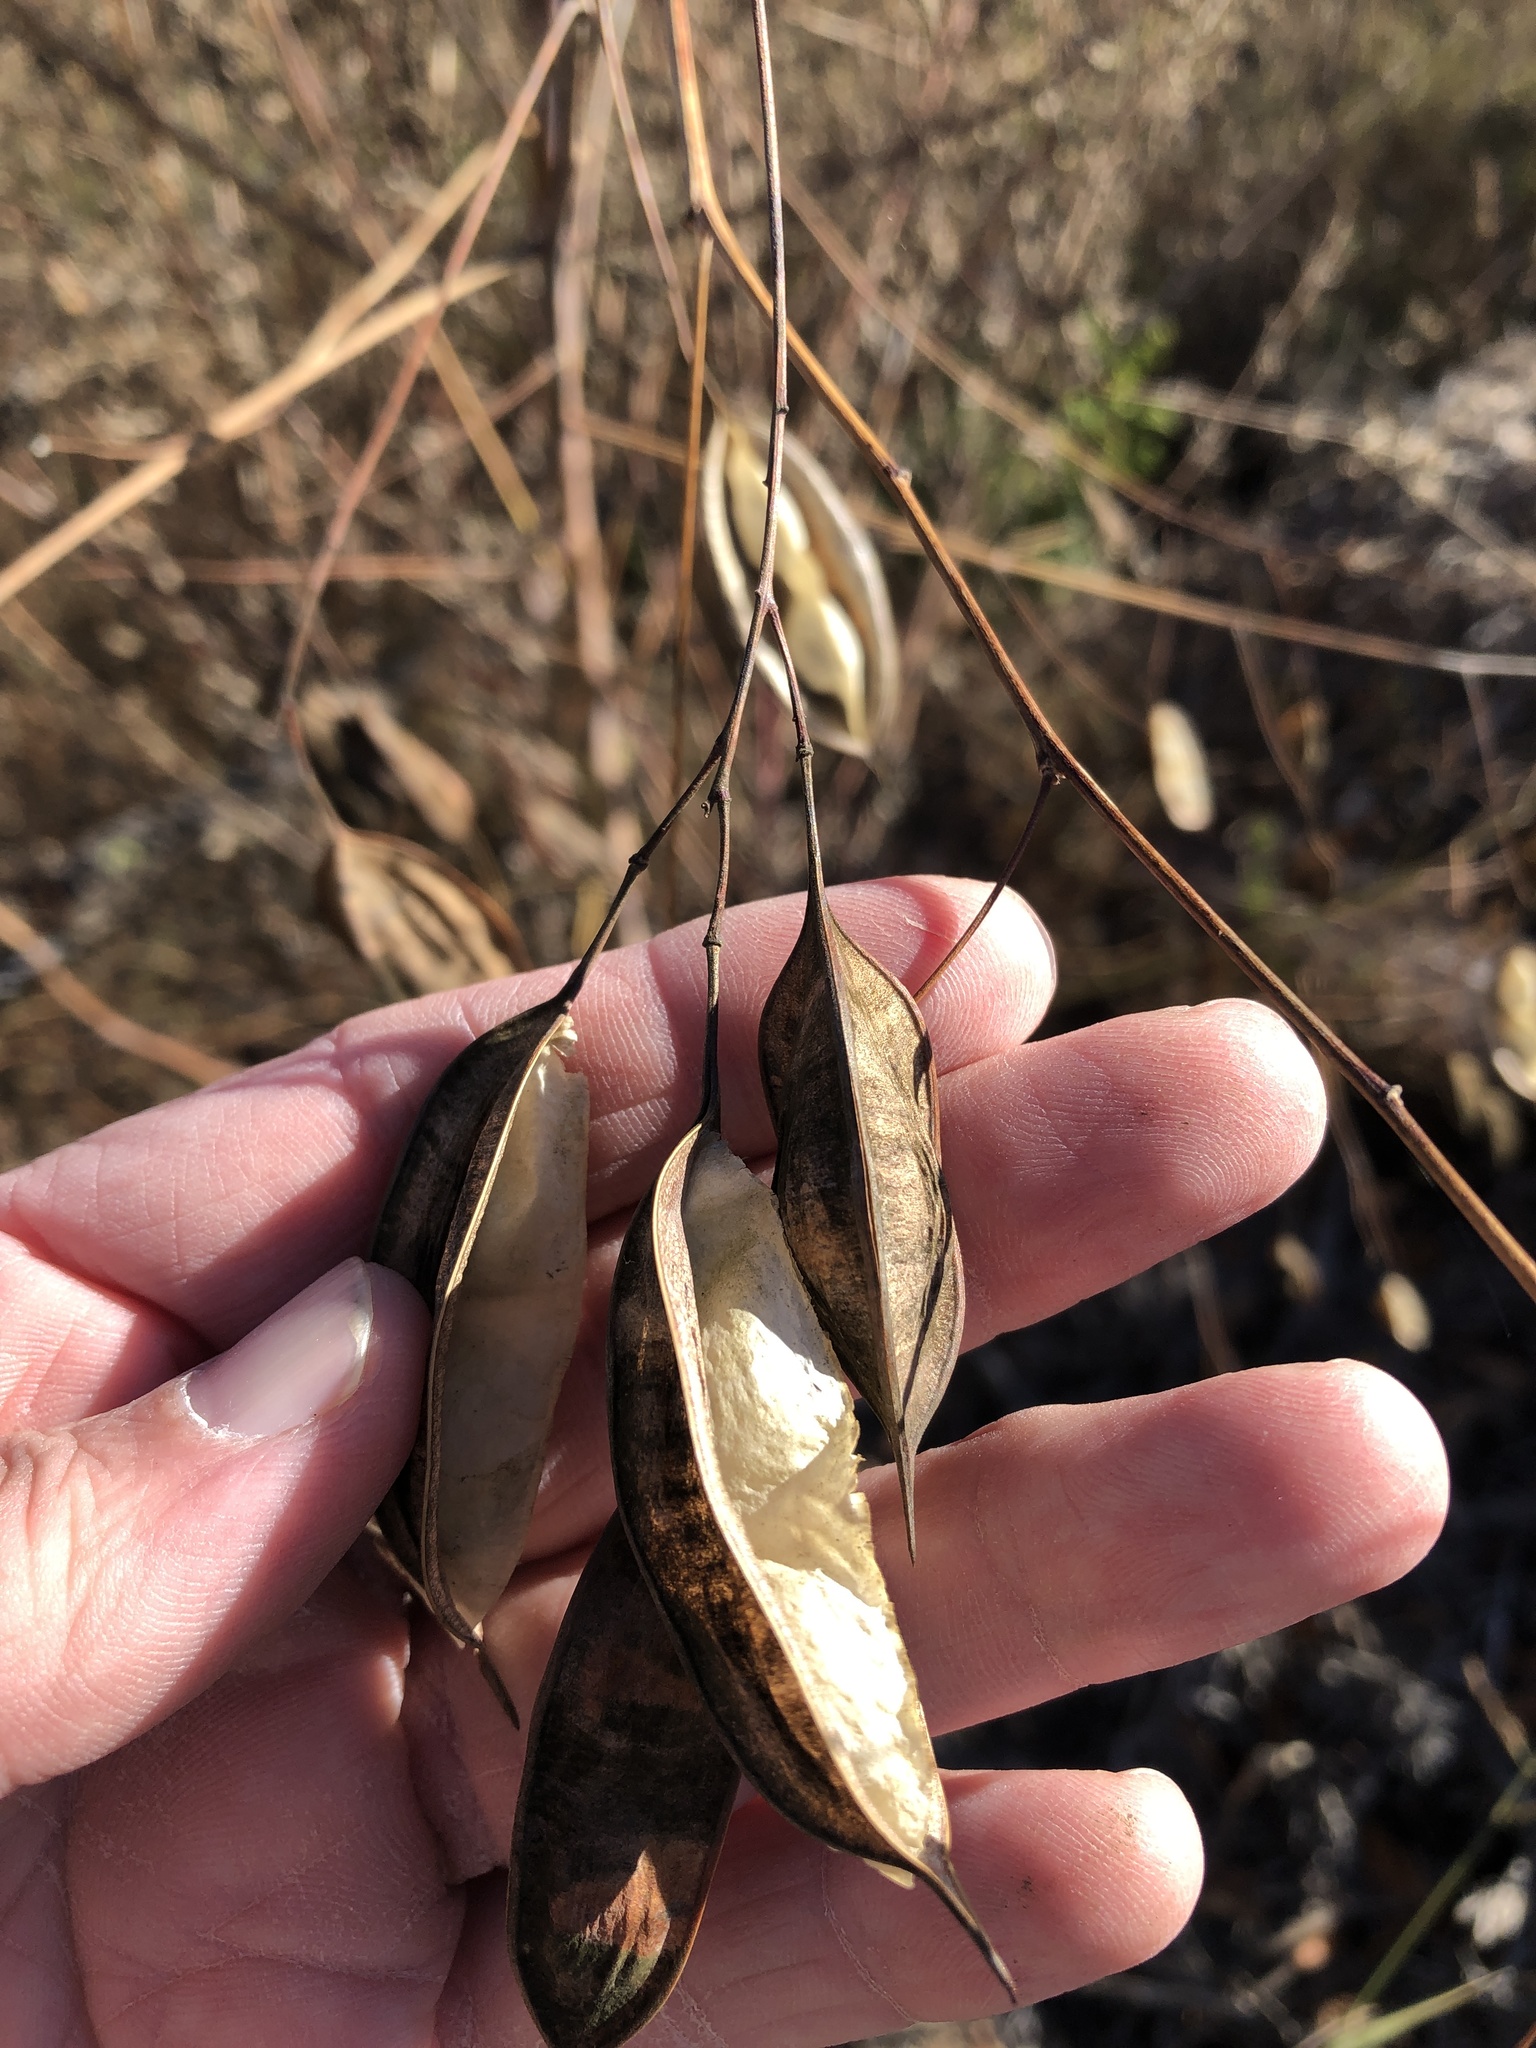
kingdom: Plantae
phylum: Tracheophyta
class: Magnoliopsida
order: Fabales
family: Fabaceae
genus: Sesbania
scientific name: Sesbania vesicaria
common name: Bagpod
